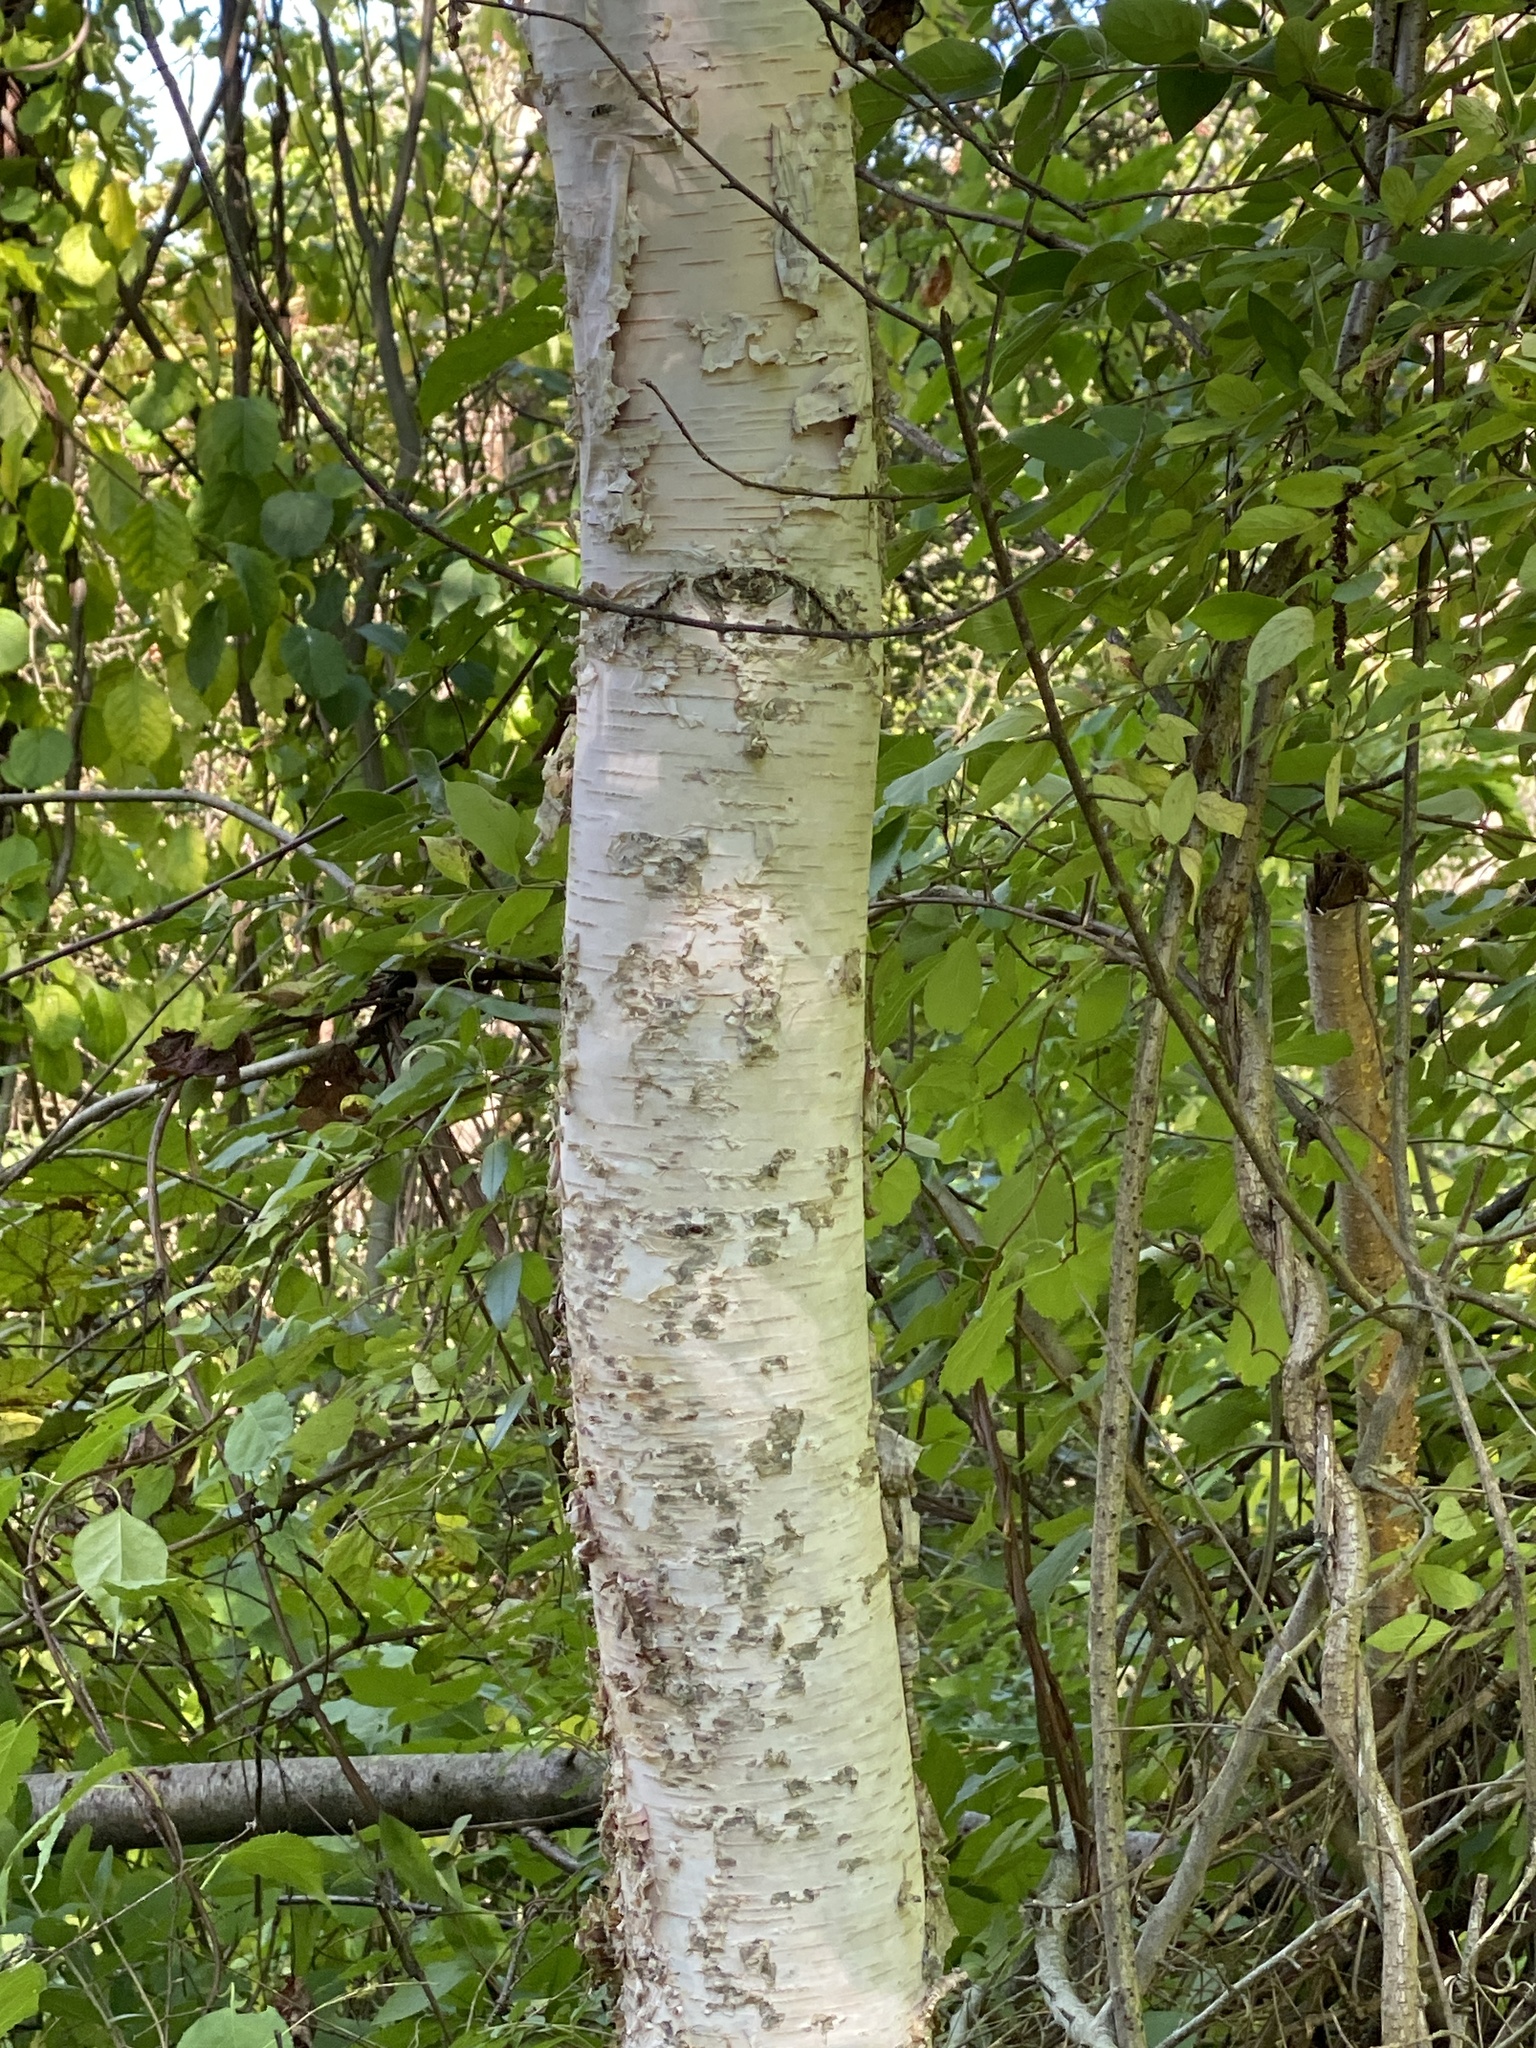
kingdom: Plantae
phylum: Tracheophyta
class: Magnoliopsida
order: Fagales
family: Betulaceae
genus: Betula
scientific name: Betula papyrifera
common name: Paper birch
